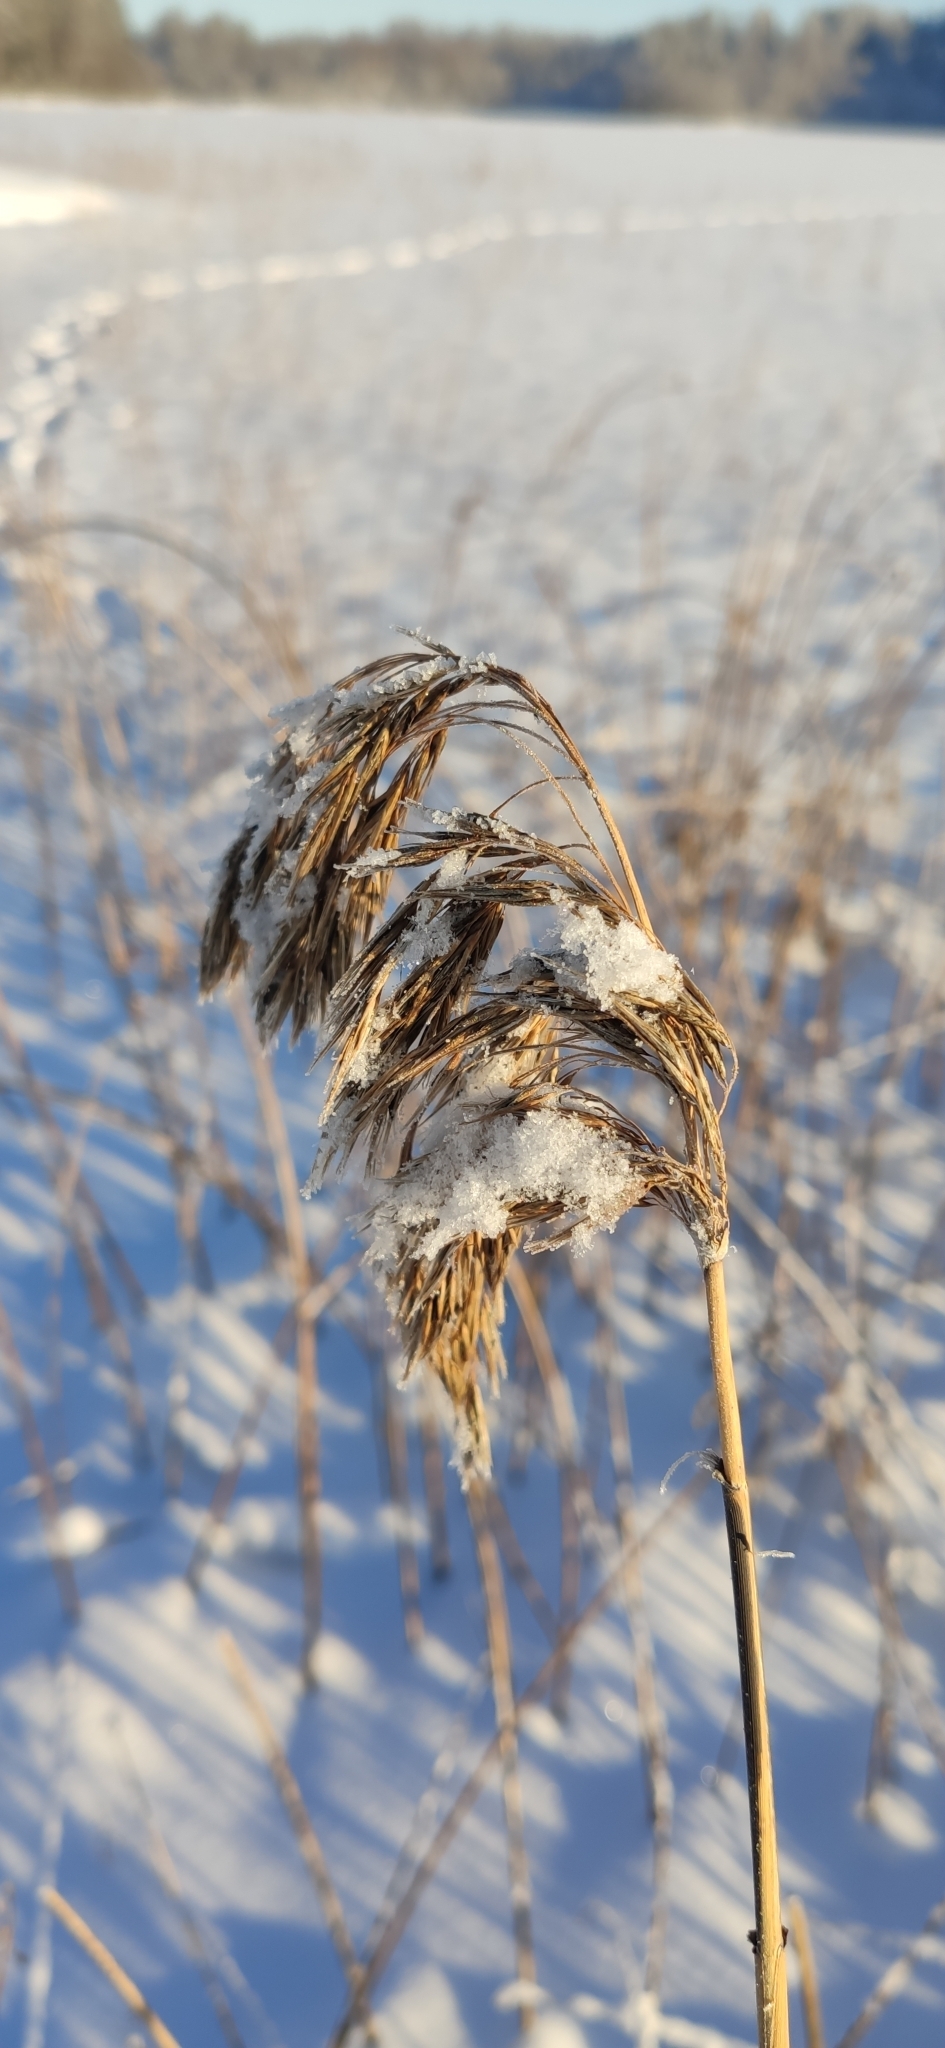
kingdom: Plantae
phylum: Tracheophyta
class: Liliopsida
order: Poales
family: Poaceae
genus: Phragmites
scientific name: Phragmites australis
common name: Common reed
